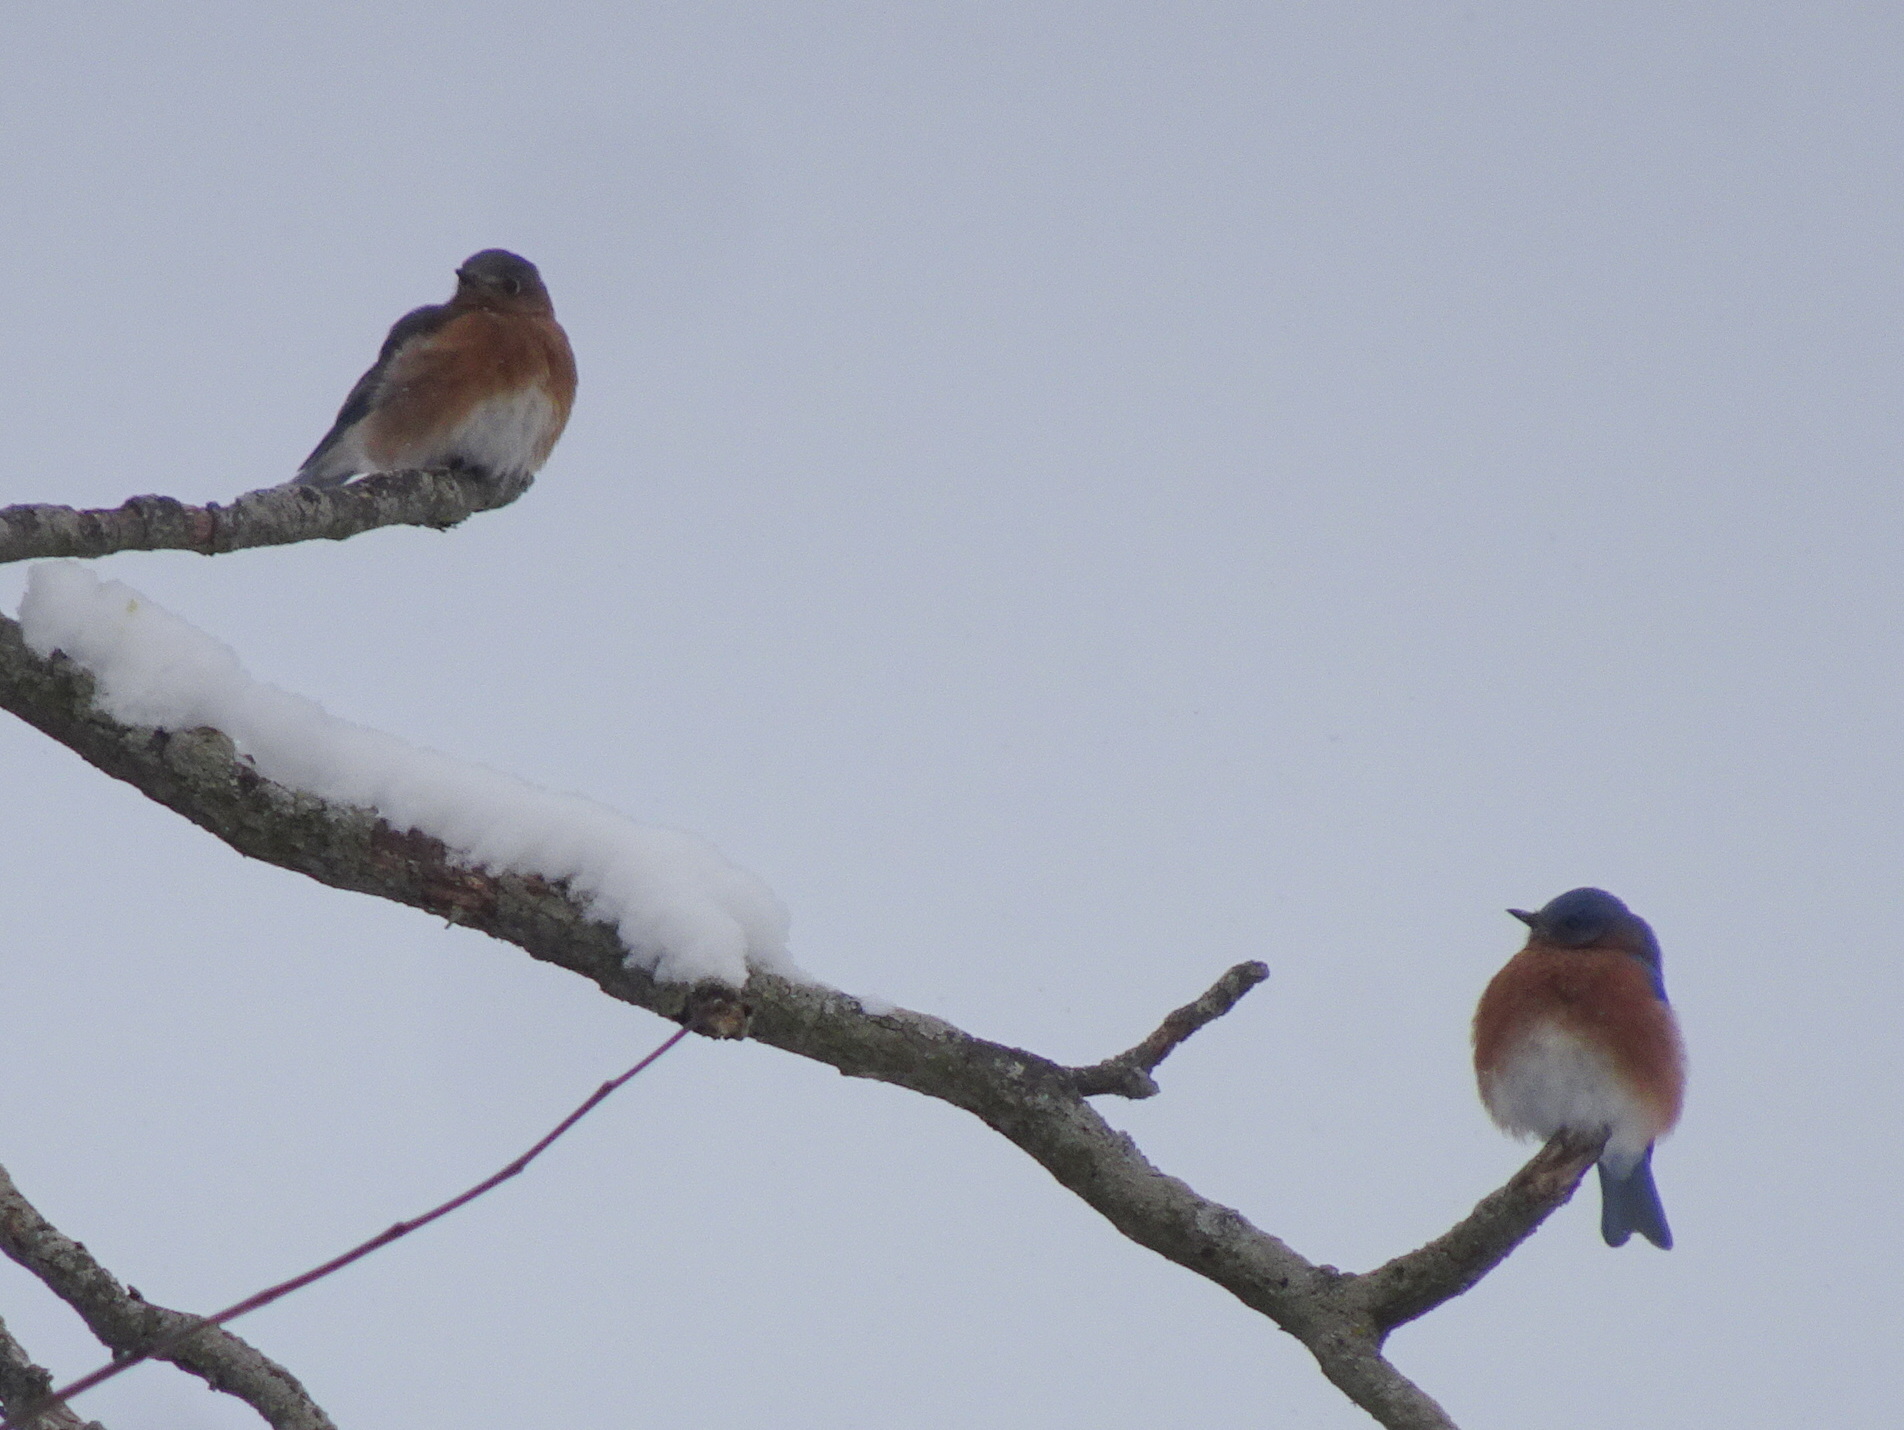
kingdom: Animalia
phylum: Chordata
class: Aves
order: Passeriformes
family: Turdidae
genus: Sialia
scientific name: Sialia sialis
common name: Eastern bluebird
